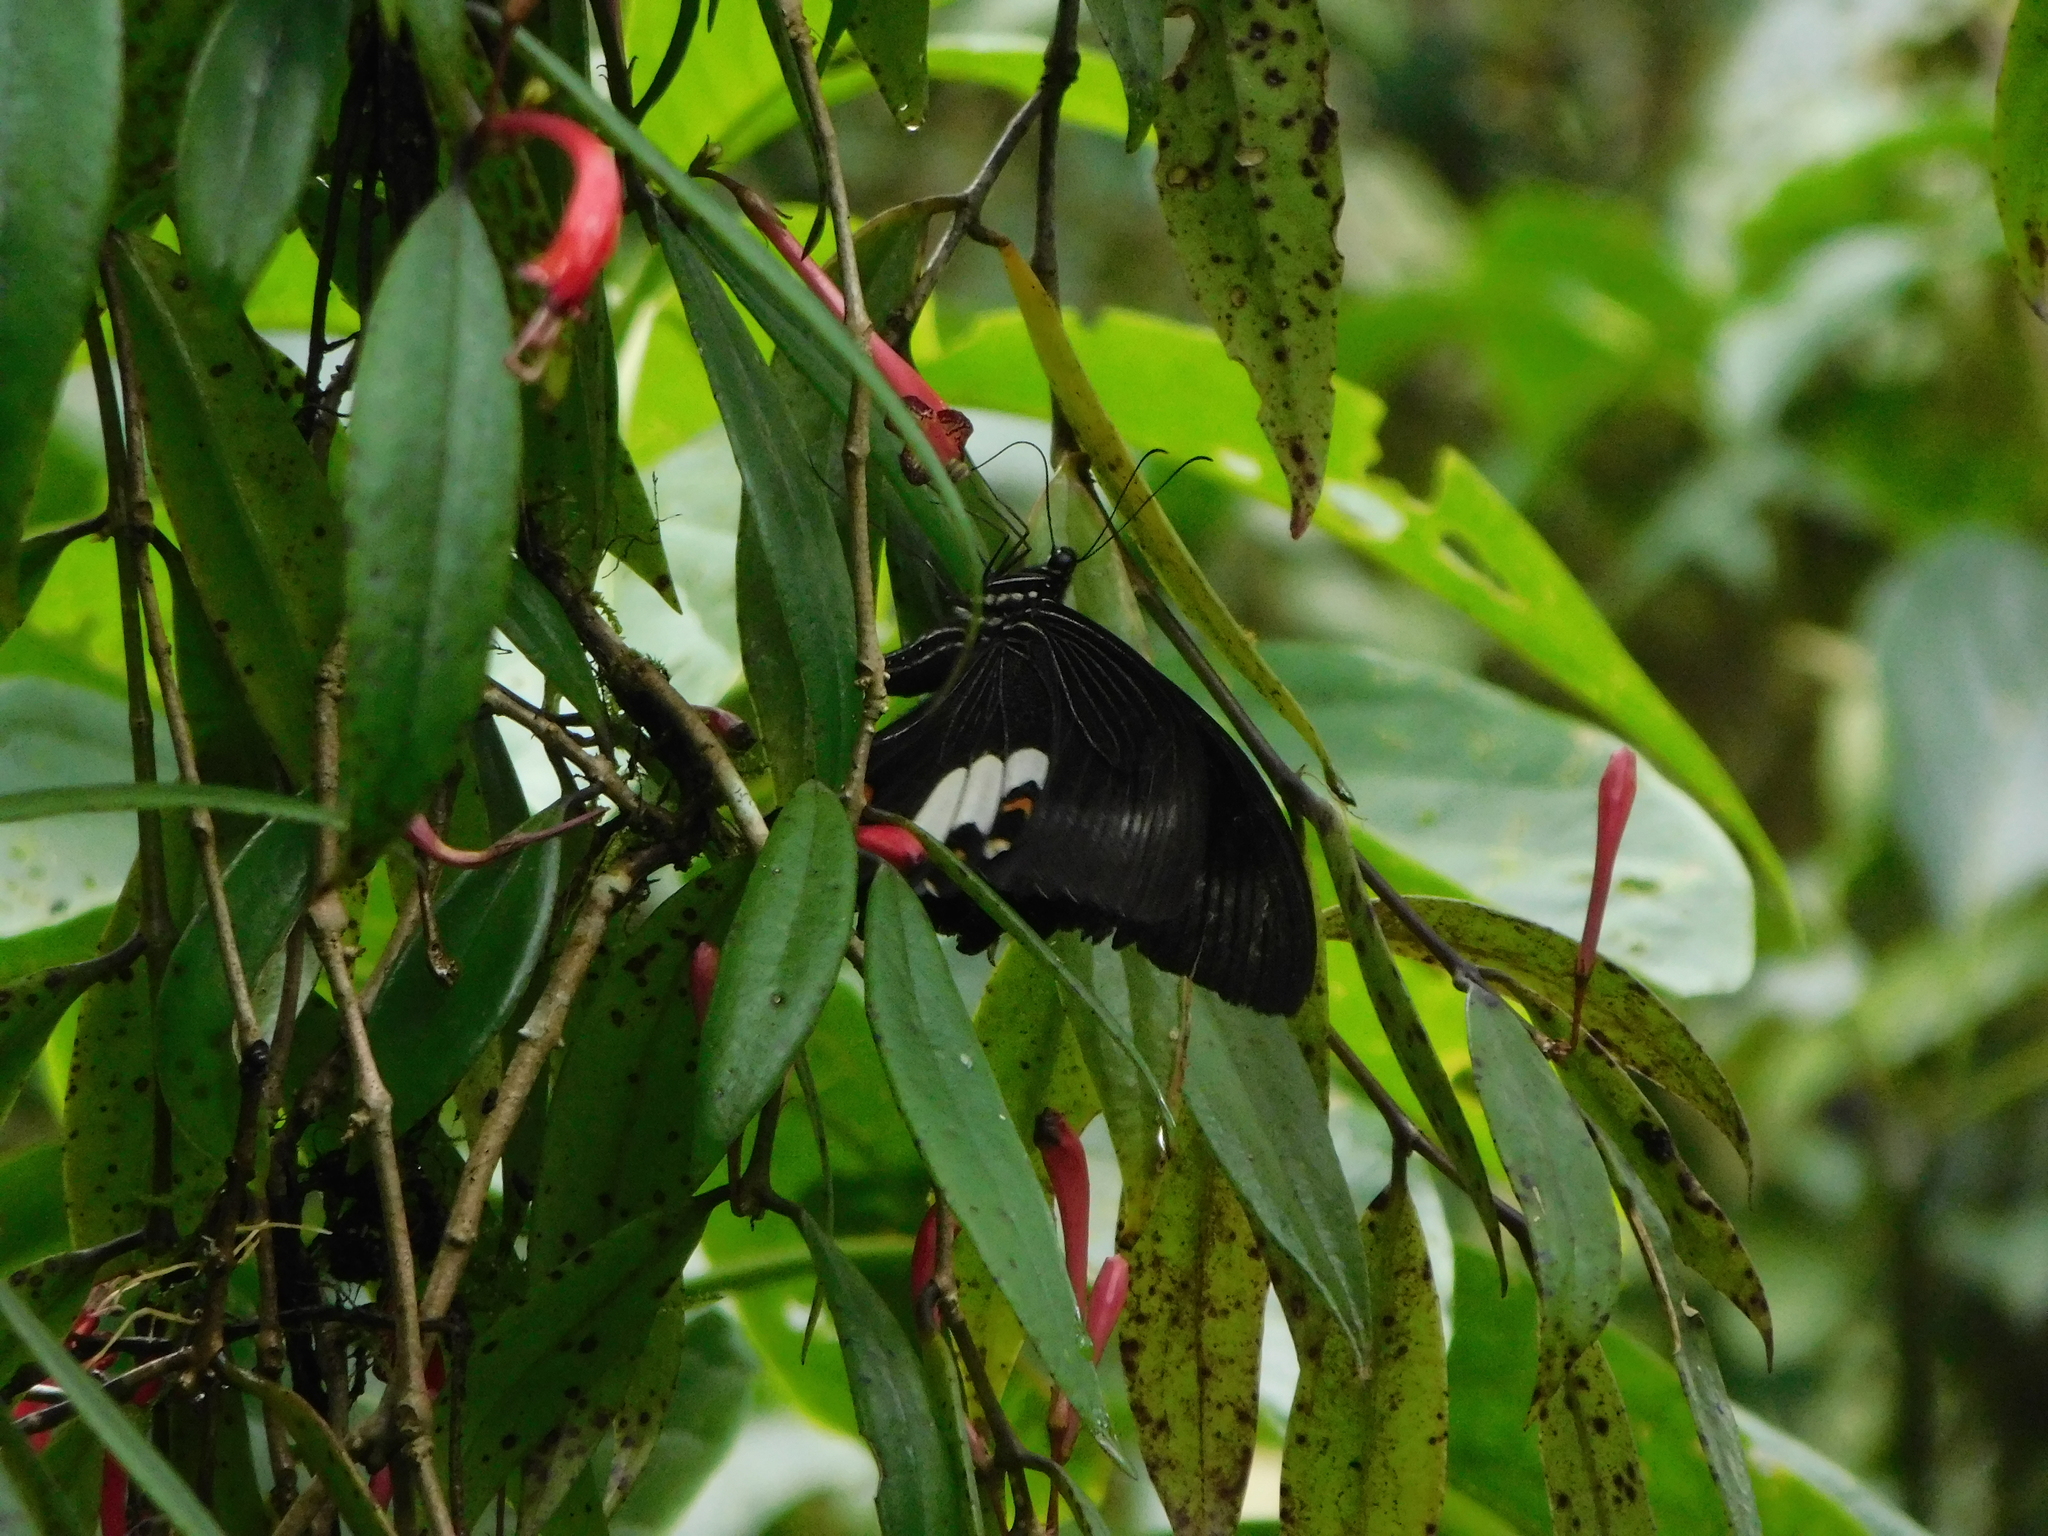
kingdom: Animalia
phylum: Arthropoda
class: Insecta
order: Lepidoptera
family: Papilionidae
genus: Papilio
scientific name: Papilio helenus
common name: Red helen
